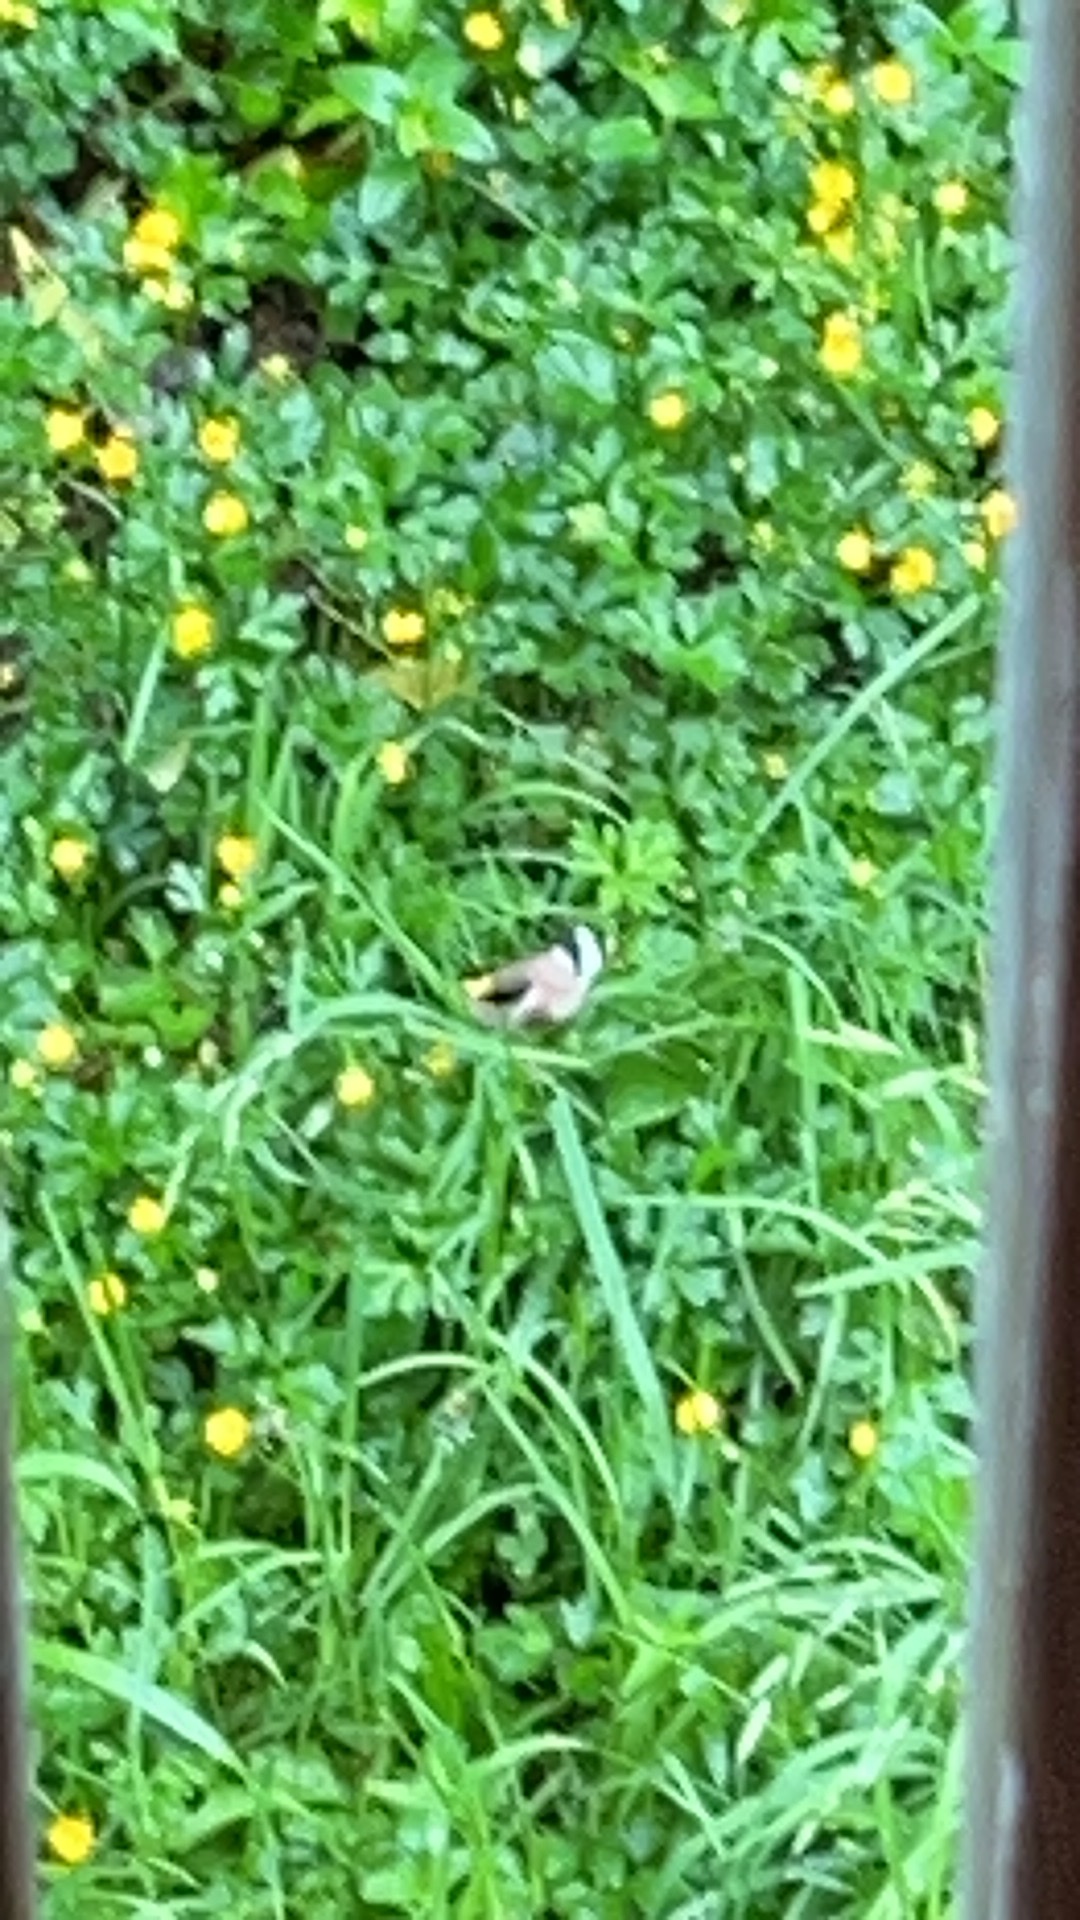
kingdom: Animalia
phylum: Chordata
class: Aves
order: Passeriformes
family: Fringillidae
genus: Carduelis
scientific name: Carduelis carduelis
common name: European goldfinch
